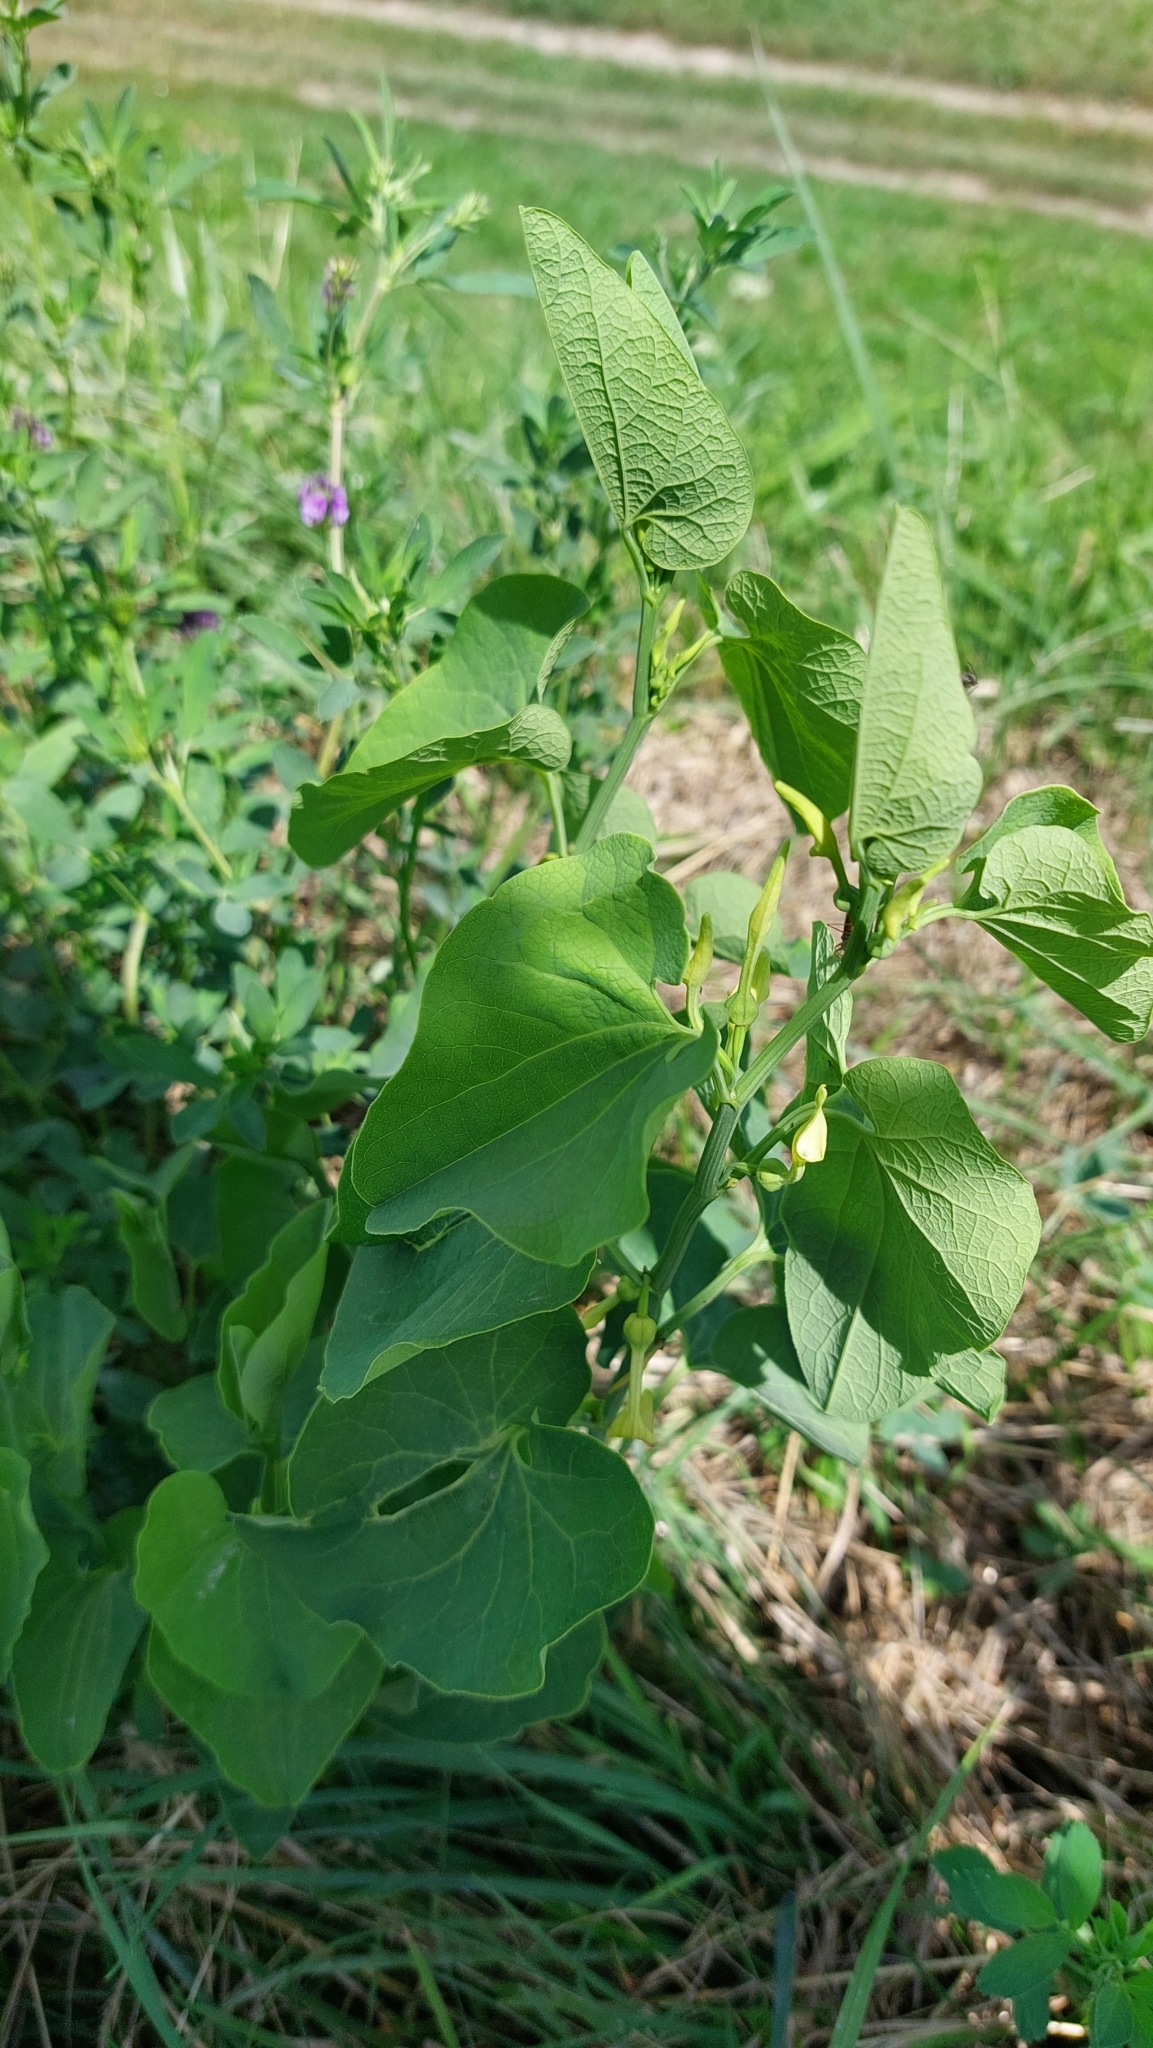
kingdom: Plantae
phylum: Tracheophyta
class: Magnoliopsida
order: Piperales
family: Aristolochiaceae
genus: Aristolochia
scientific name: Aristolochia clematitis
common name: Birthwort
